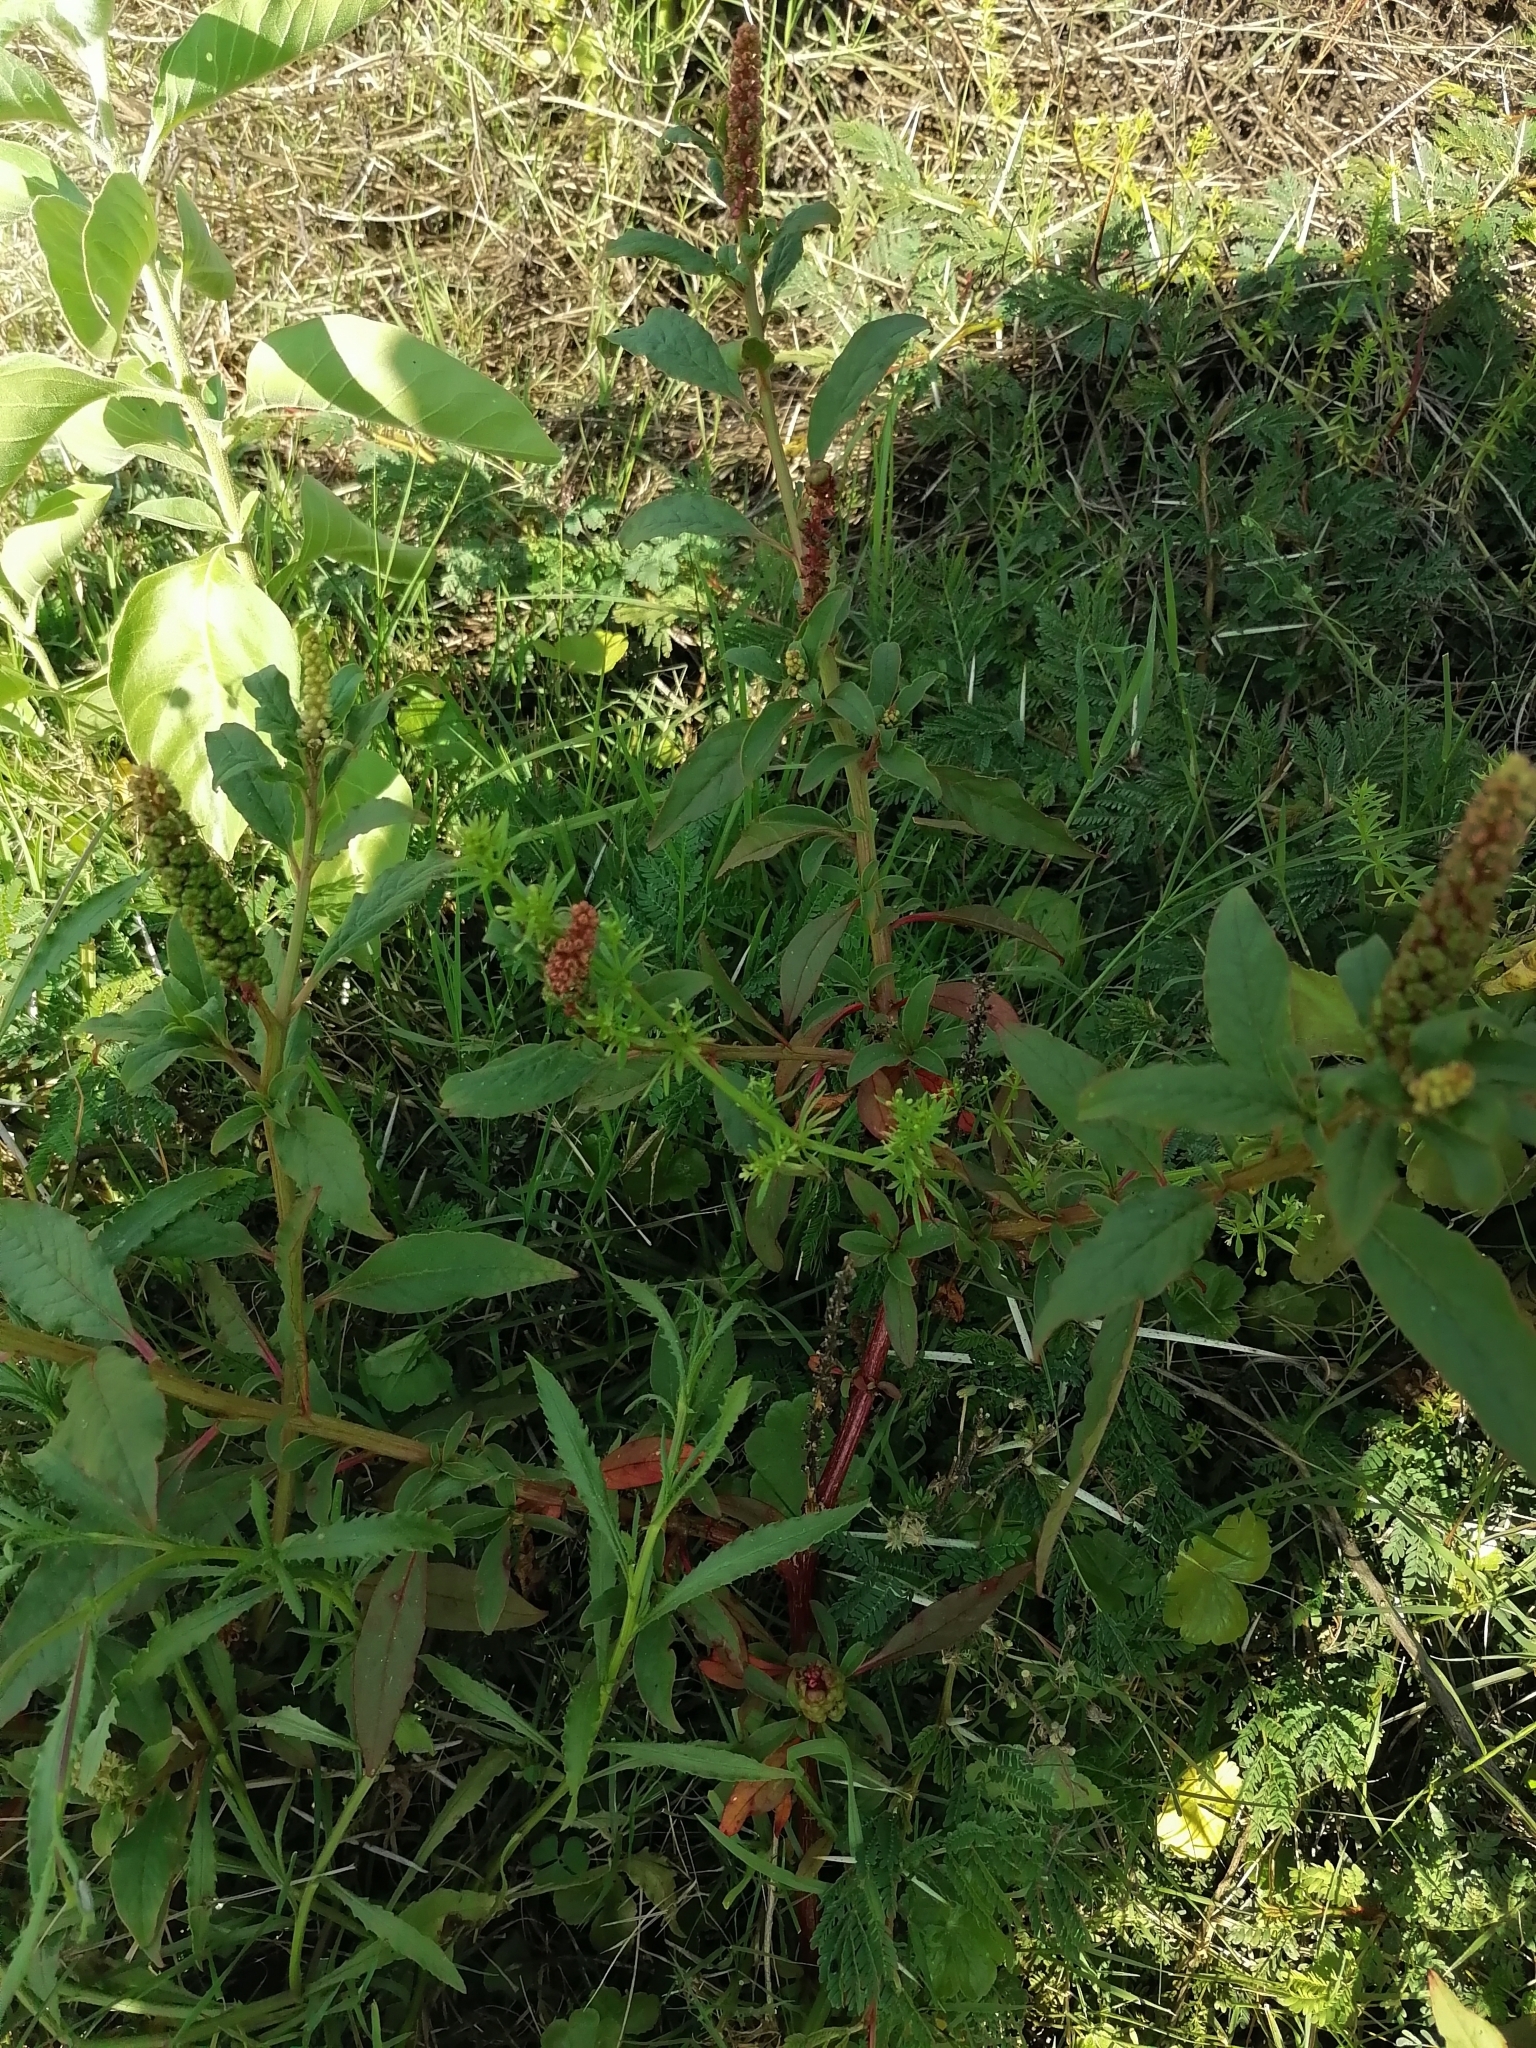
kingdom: Plantae
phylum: Tracheophyta
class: Magnoliopsida
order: Caryophyllales
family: Phytolaccaceae
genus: Phytolacca
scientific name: Phytolacca icosandra
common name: Button pokeweed
